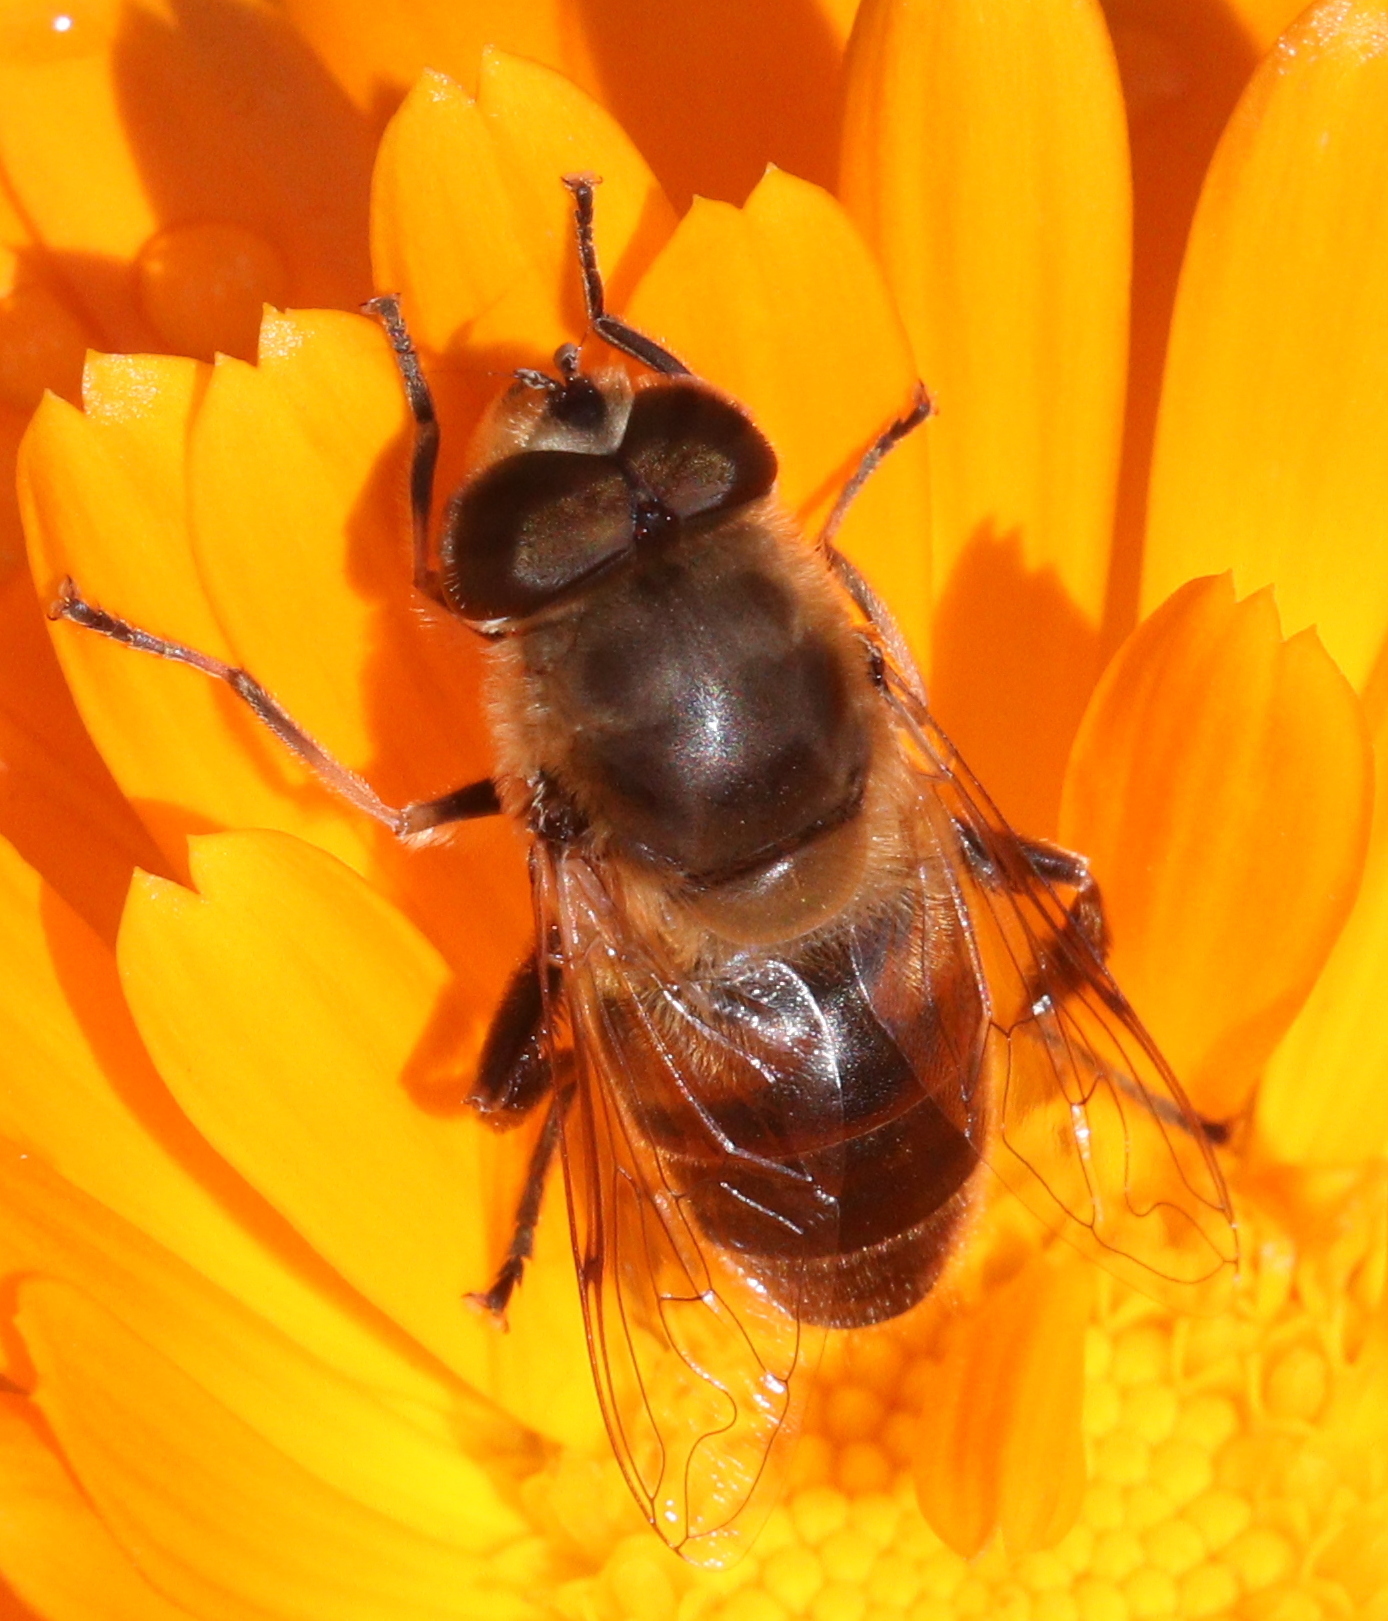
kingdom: Animalia
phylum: Arthropoda
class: Insecta
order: Diptera
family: Syrphidae
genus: Eristalis
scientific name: Eristalis tenax
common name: Drone fly
